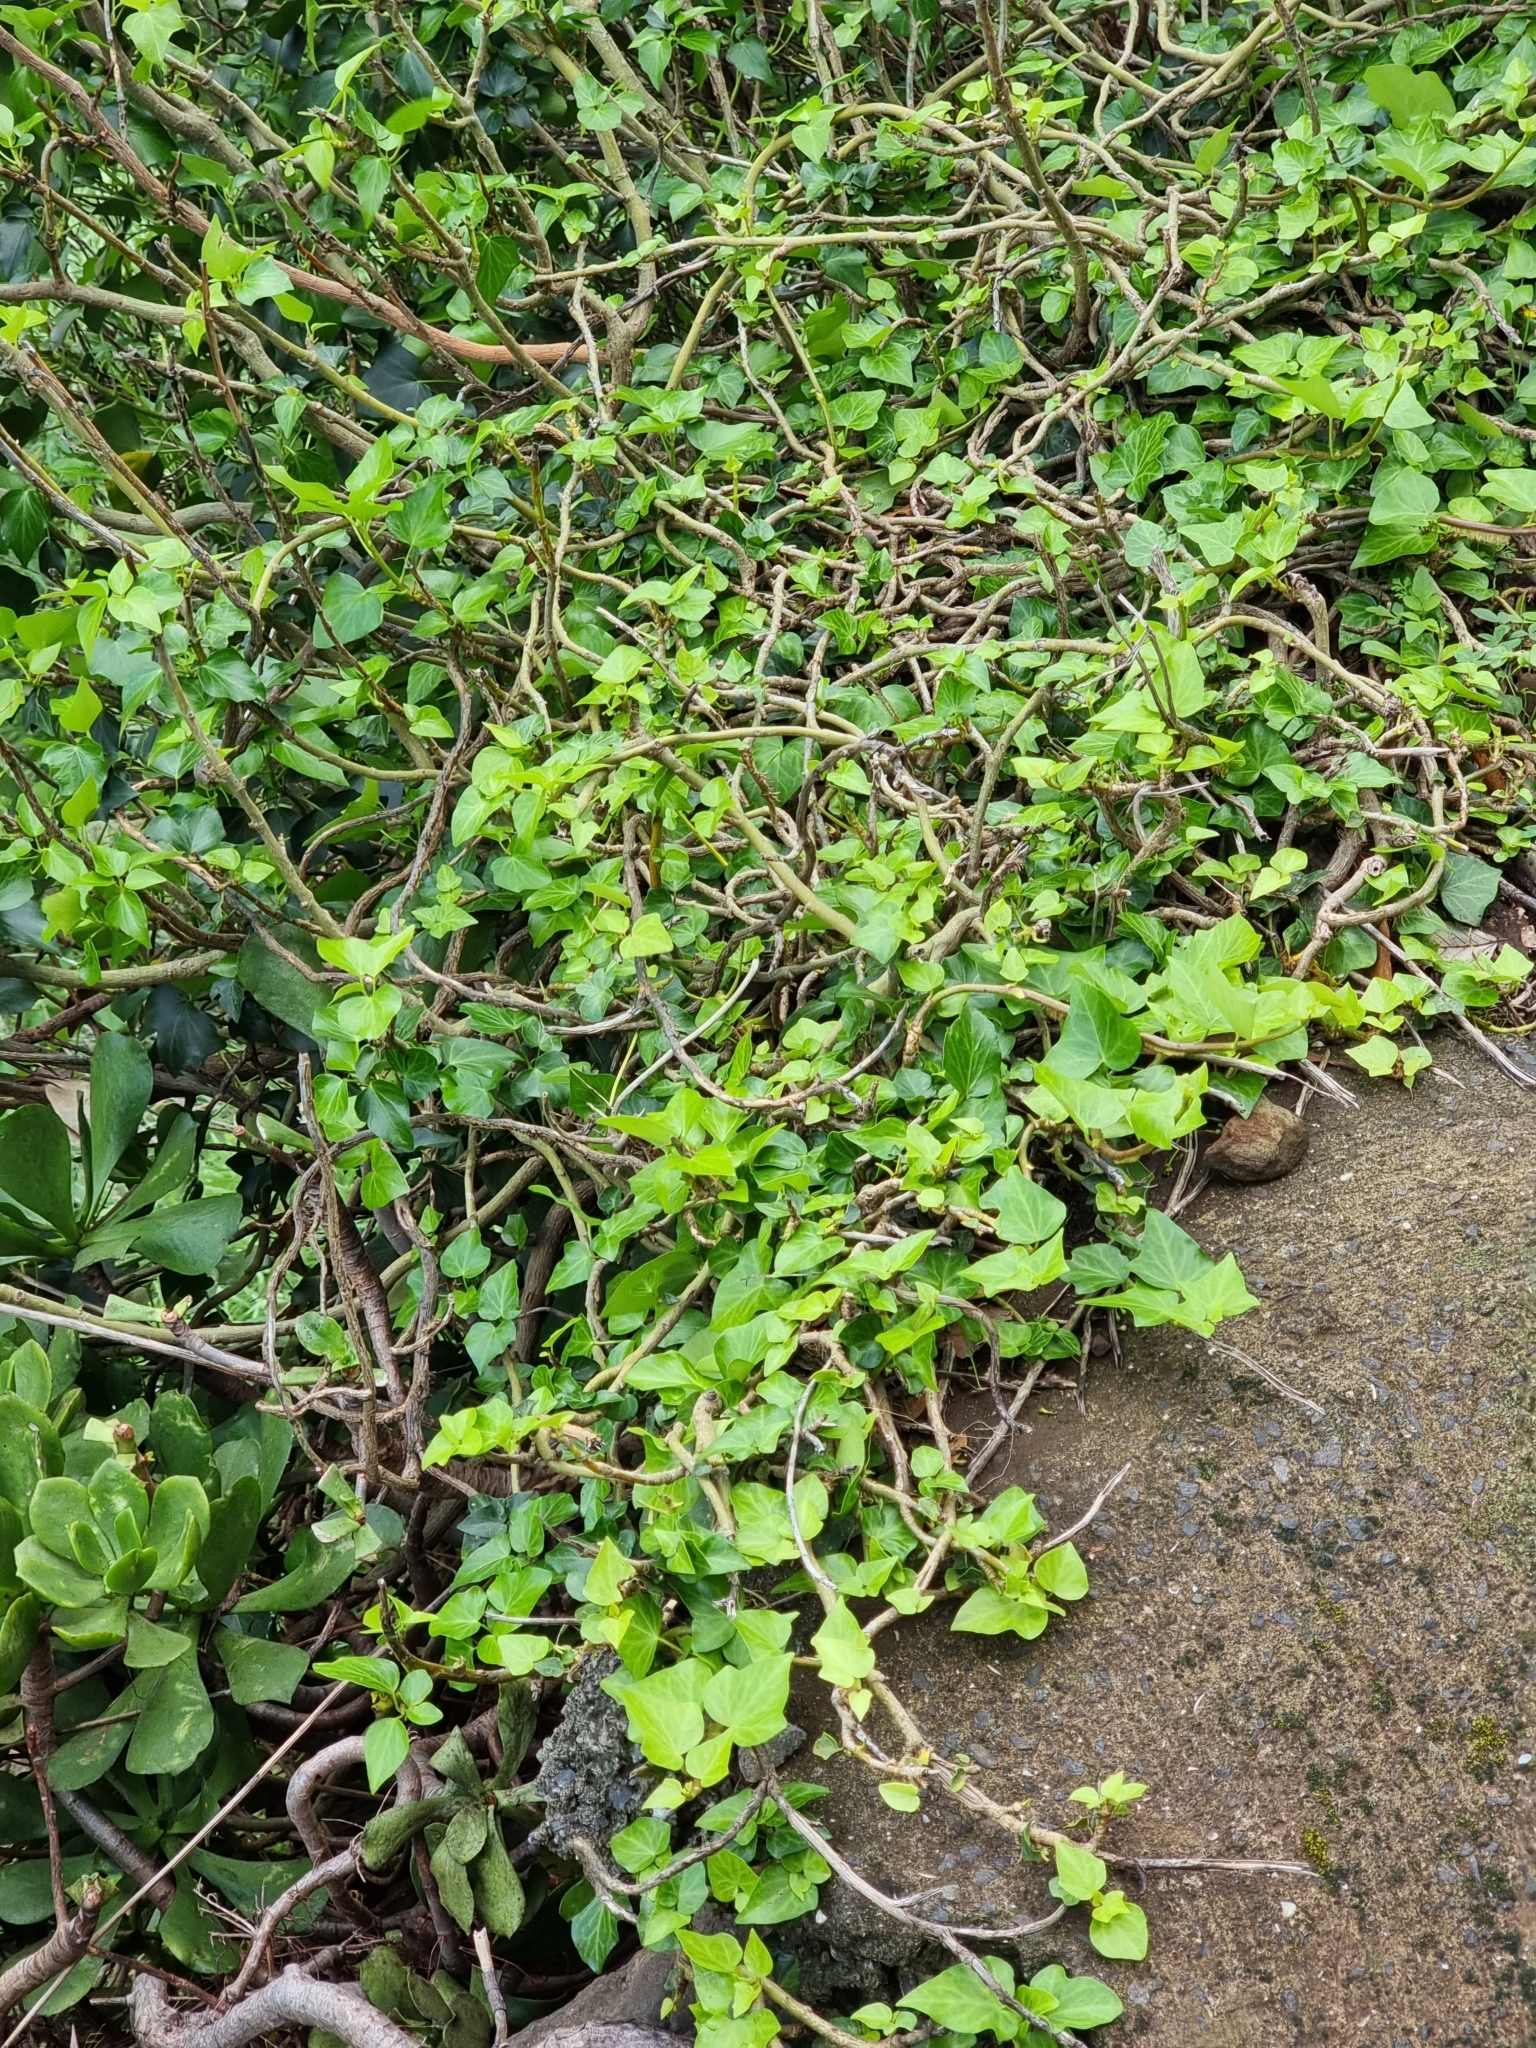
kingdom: Plantae
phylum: Tracheophyta
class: Magnoliopsida
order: Apiales
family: Araliaceae
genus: Hedera
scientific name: Hedera maderensis
